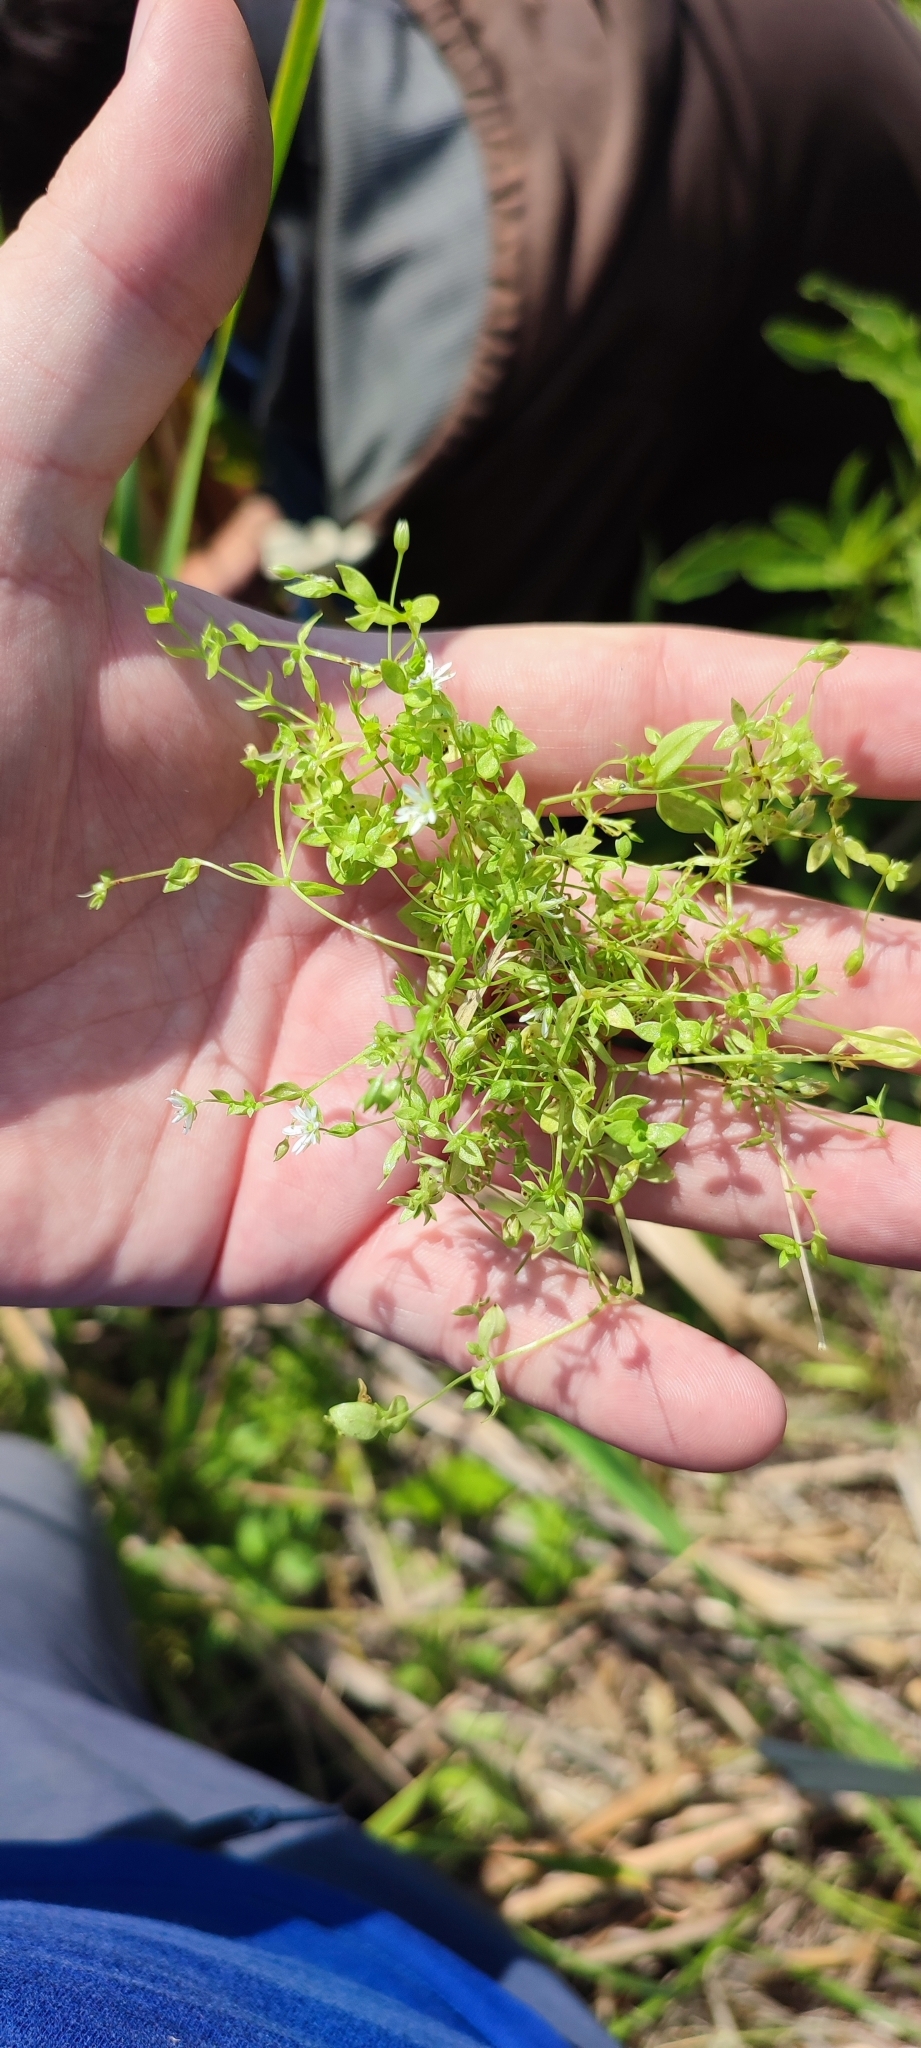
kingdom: Plantae
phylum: Tracheophyta
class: Magnoliopsida
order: Caryophyllales
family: Caryophyllaceae
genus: Stellaria
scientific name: Stellaria crassifolia
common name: Fleshy starwort
